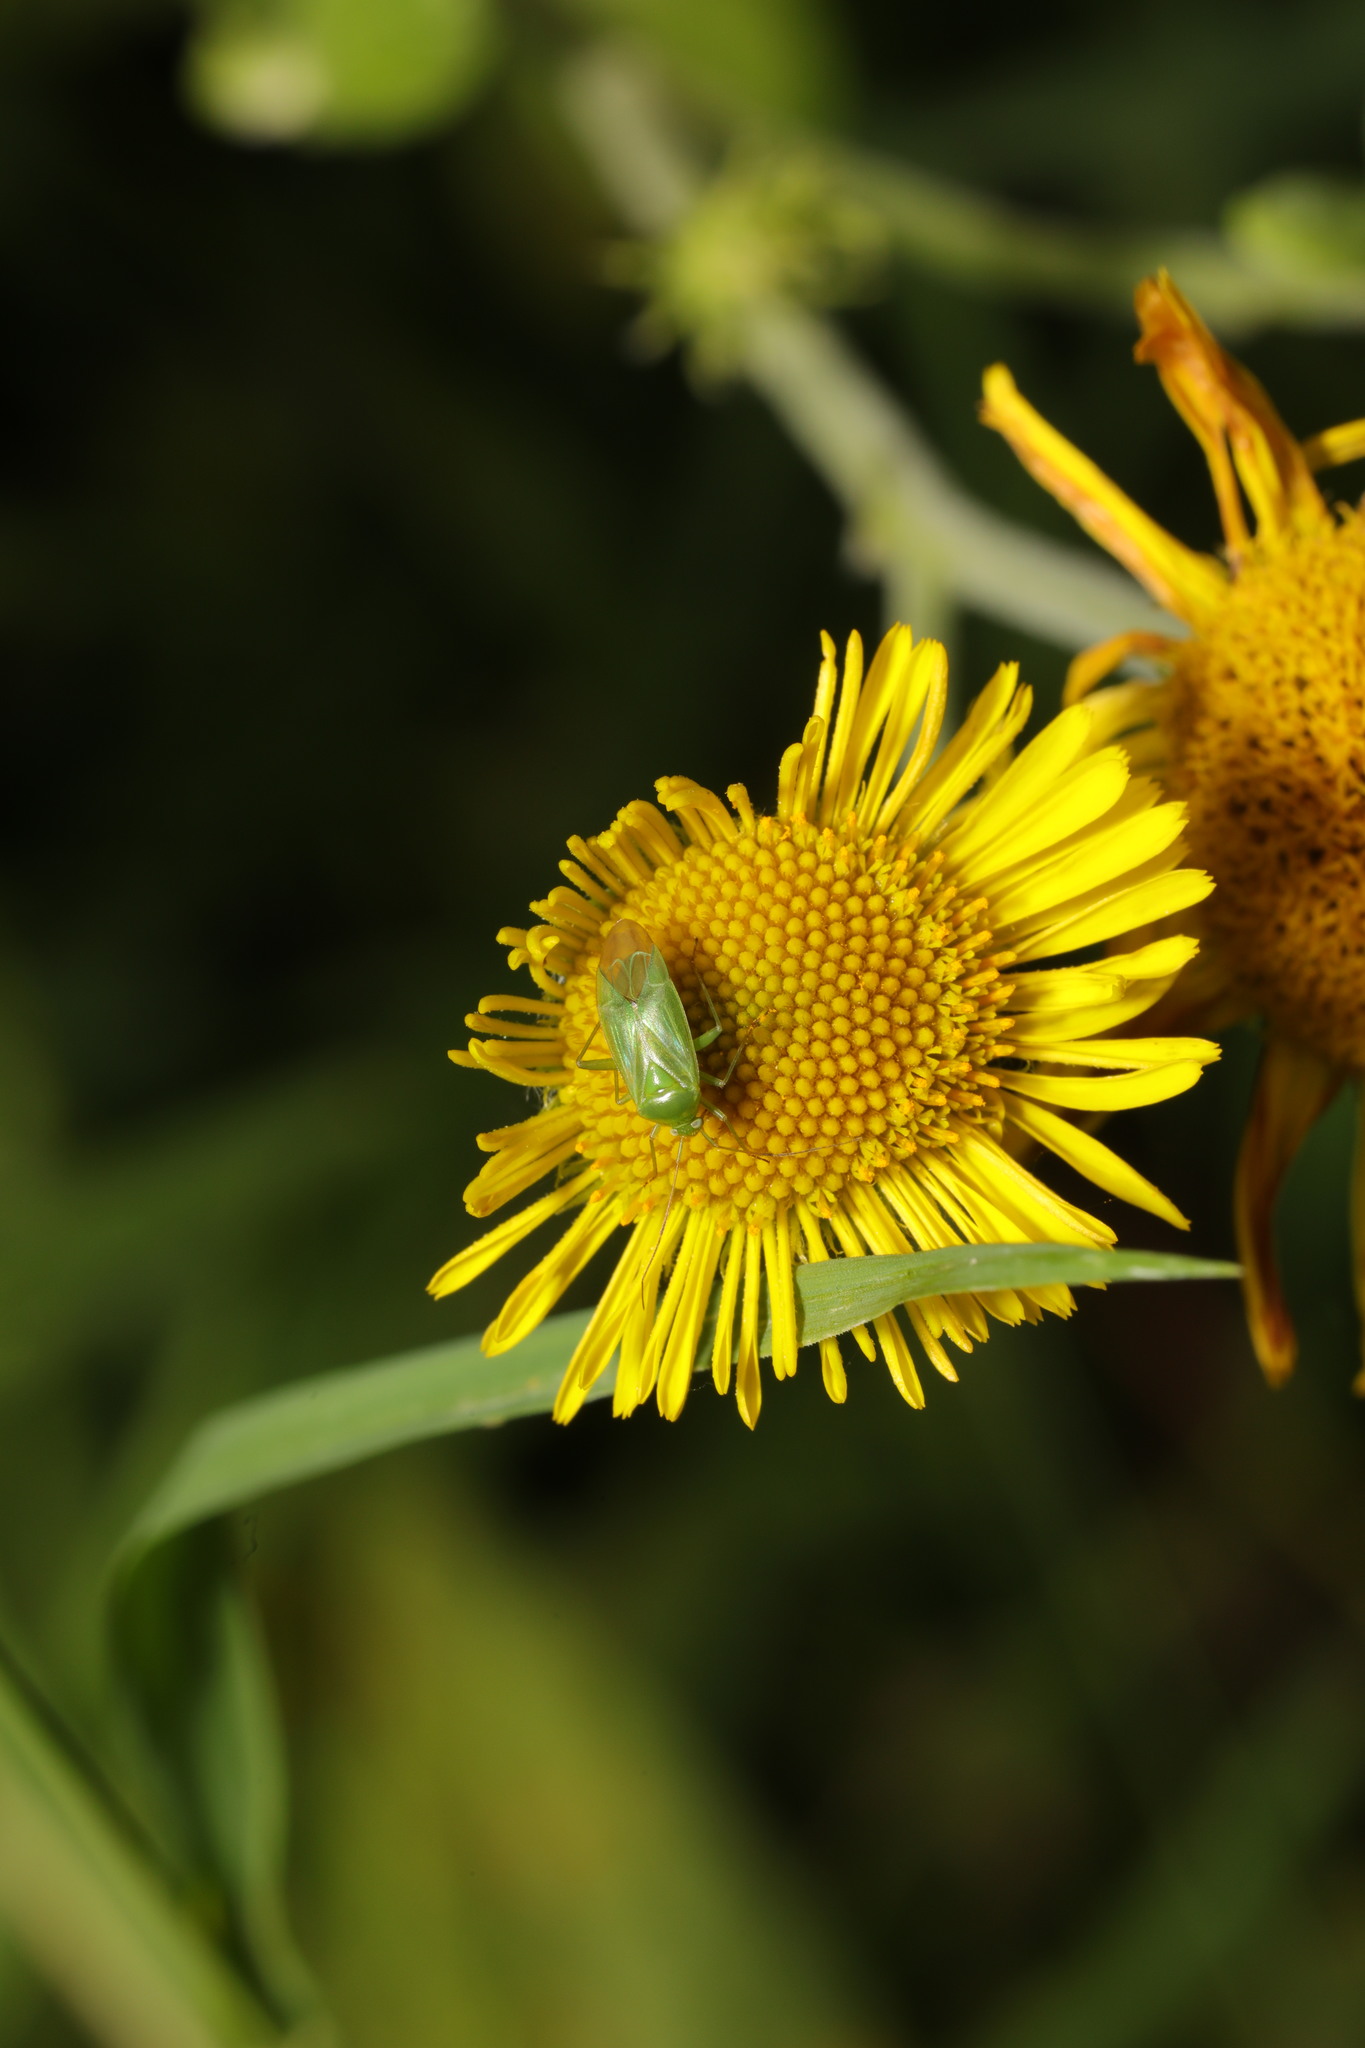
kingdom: Animalia
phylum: Arthropoda
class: Insecta
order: Hemiptera
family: Miridae
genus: Lygocoris
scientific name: Lygocoris pabulinus
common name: Common green capsid
